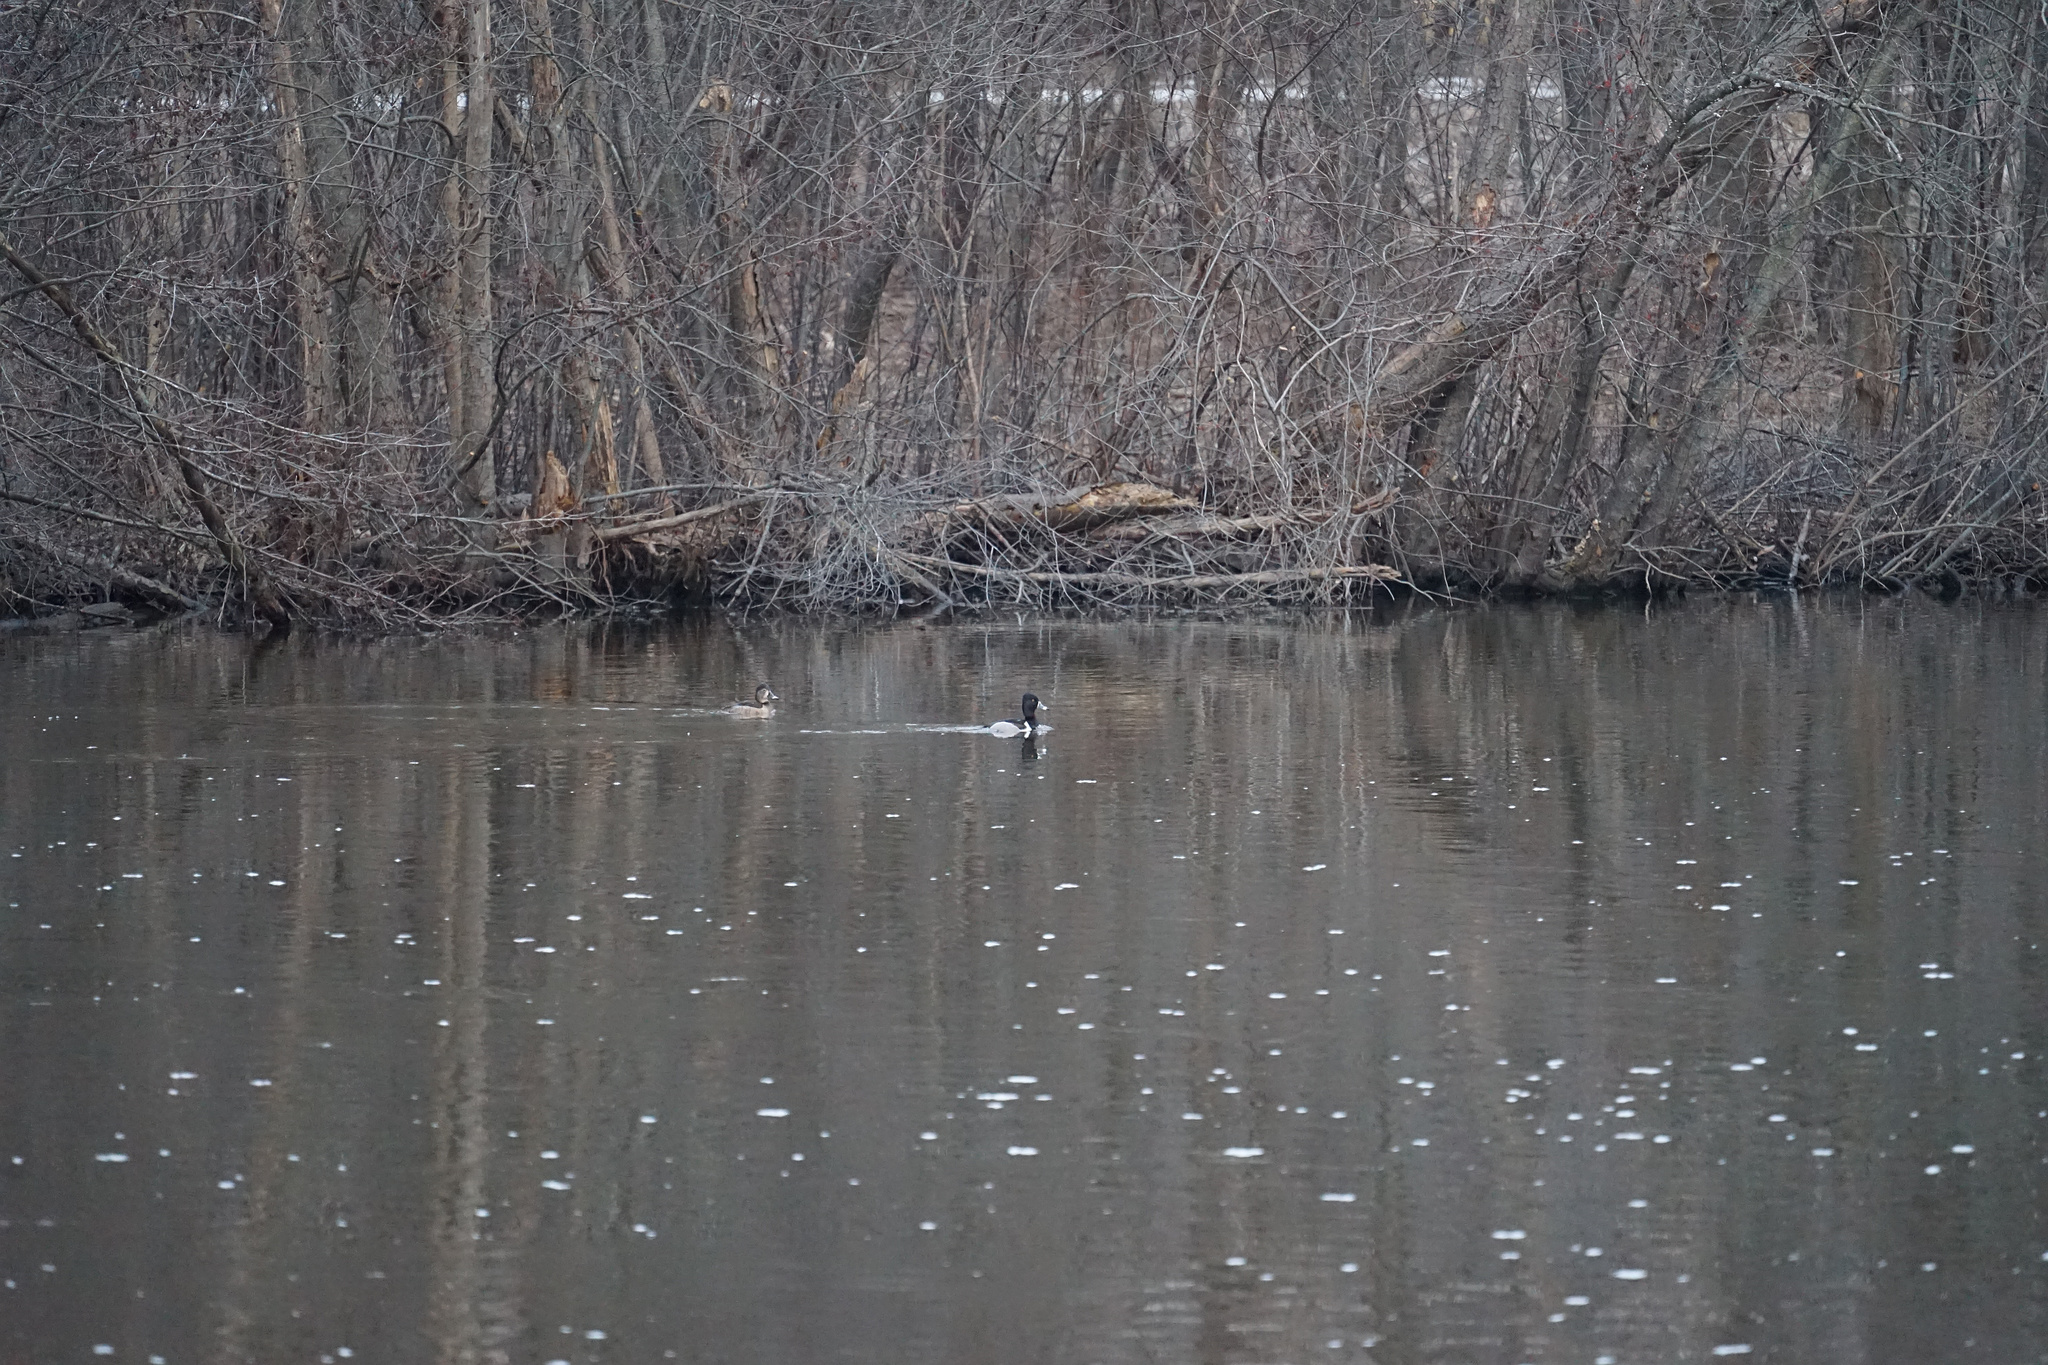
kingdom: Animalia
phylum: Chordata
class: Aves
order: Anseriformes
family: Anatidae
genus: Aythya
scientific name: Aythya collaris
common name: Ring-necked duck
